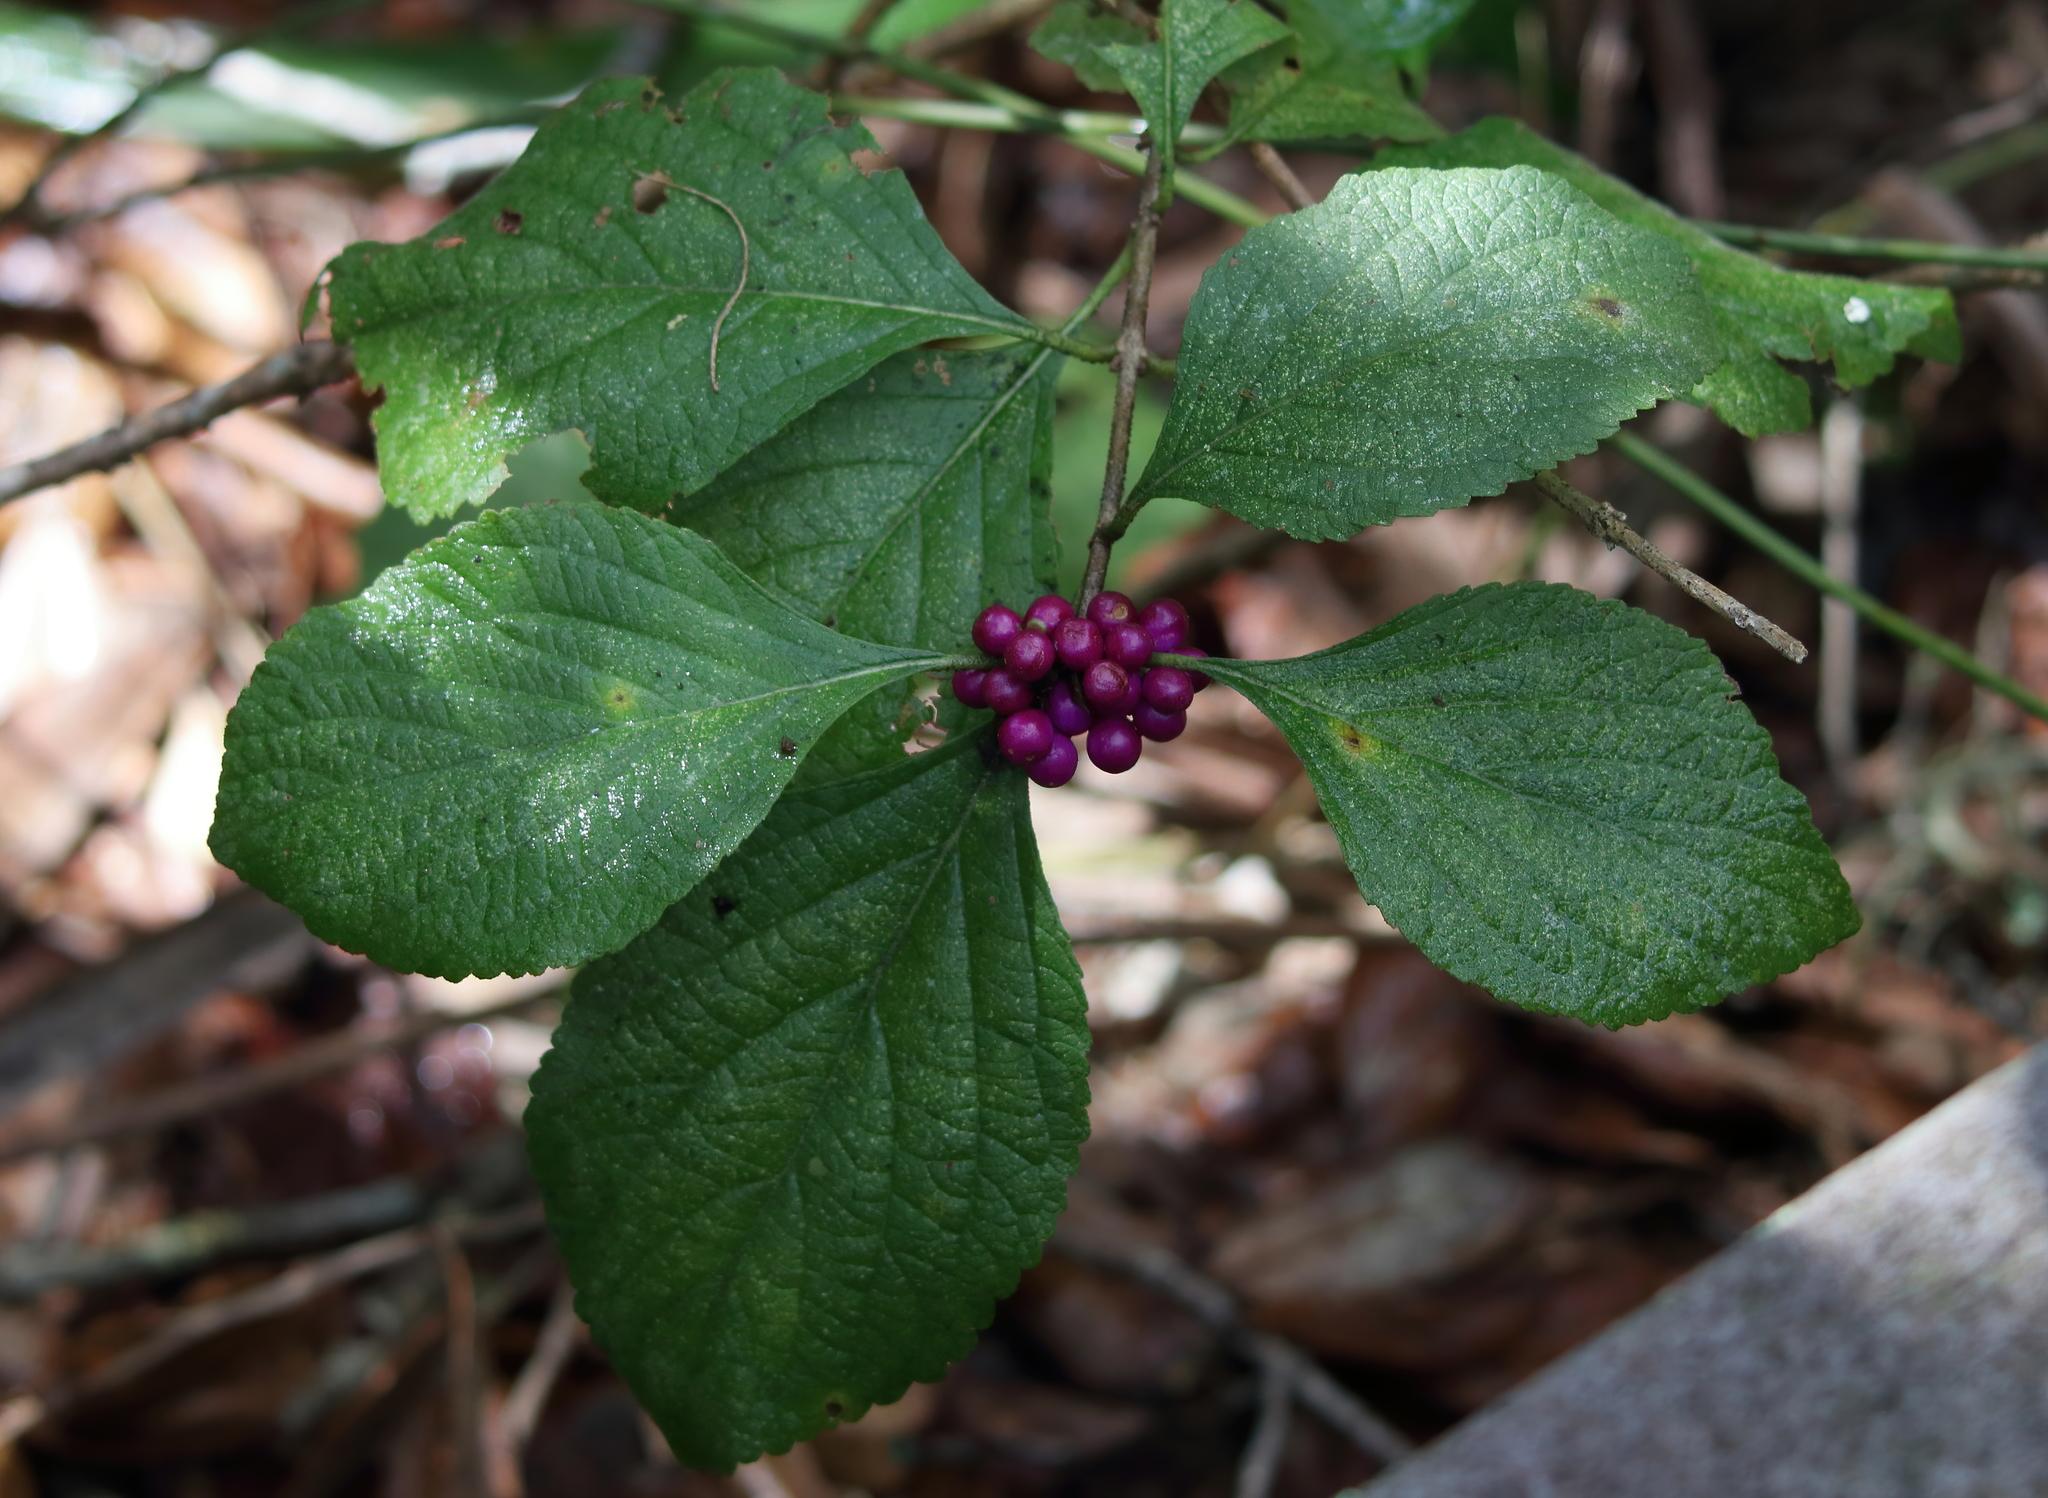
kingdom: Plantae
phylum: Tracheophyta
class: Magnoliopsida
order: Lamiales
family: Lamiaceae
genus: Callicarpa
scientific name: Callicarpa americana
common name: American beautyberry
